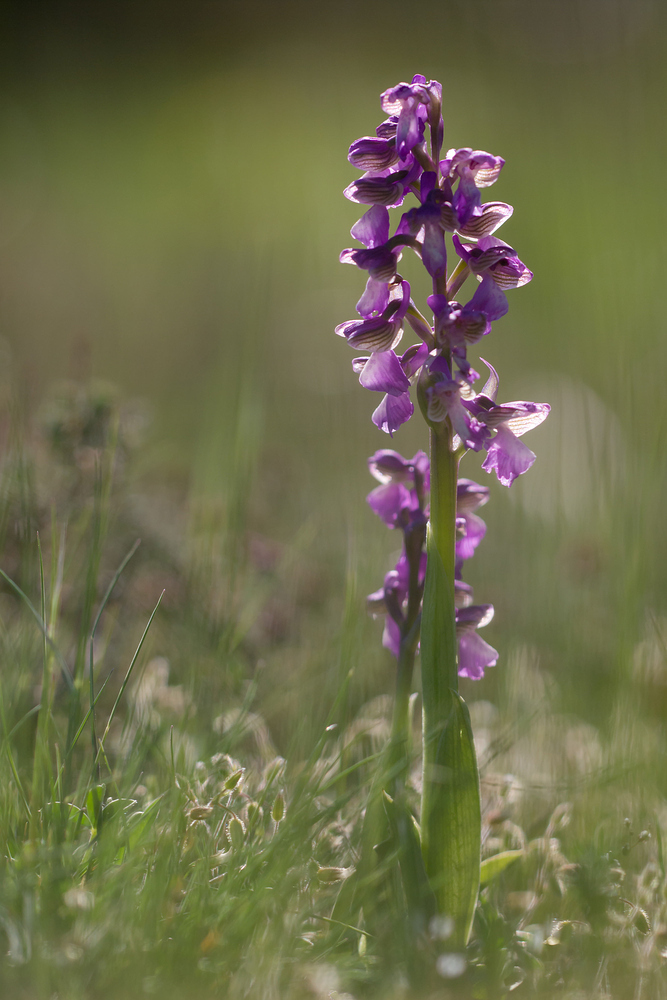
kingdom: Plantae
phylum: Tracheophyta
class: Liliopsida
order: Asparagales
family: Orchidaceae
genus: Anacamptis
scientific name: Anacamptis morio
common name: Green-winged orchid
